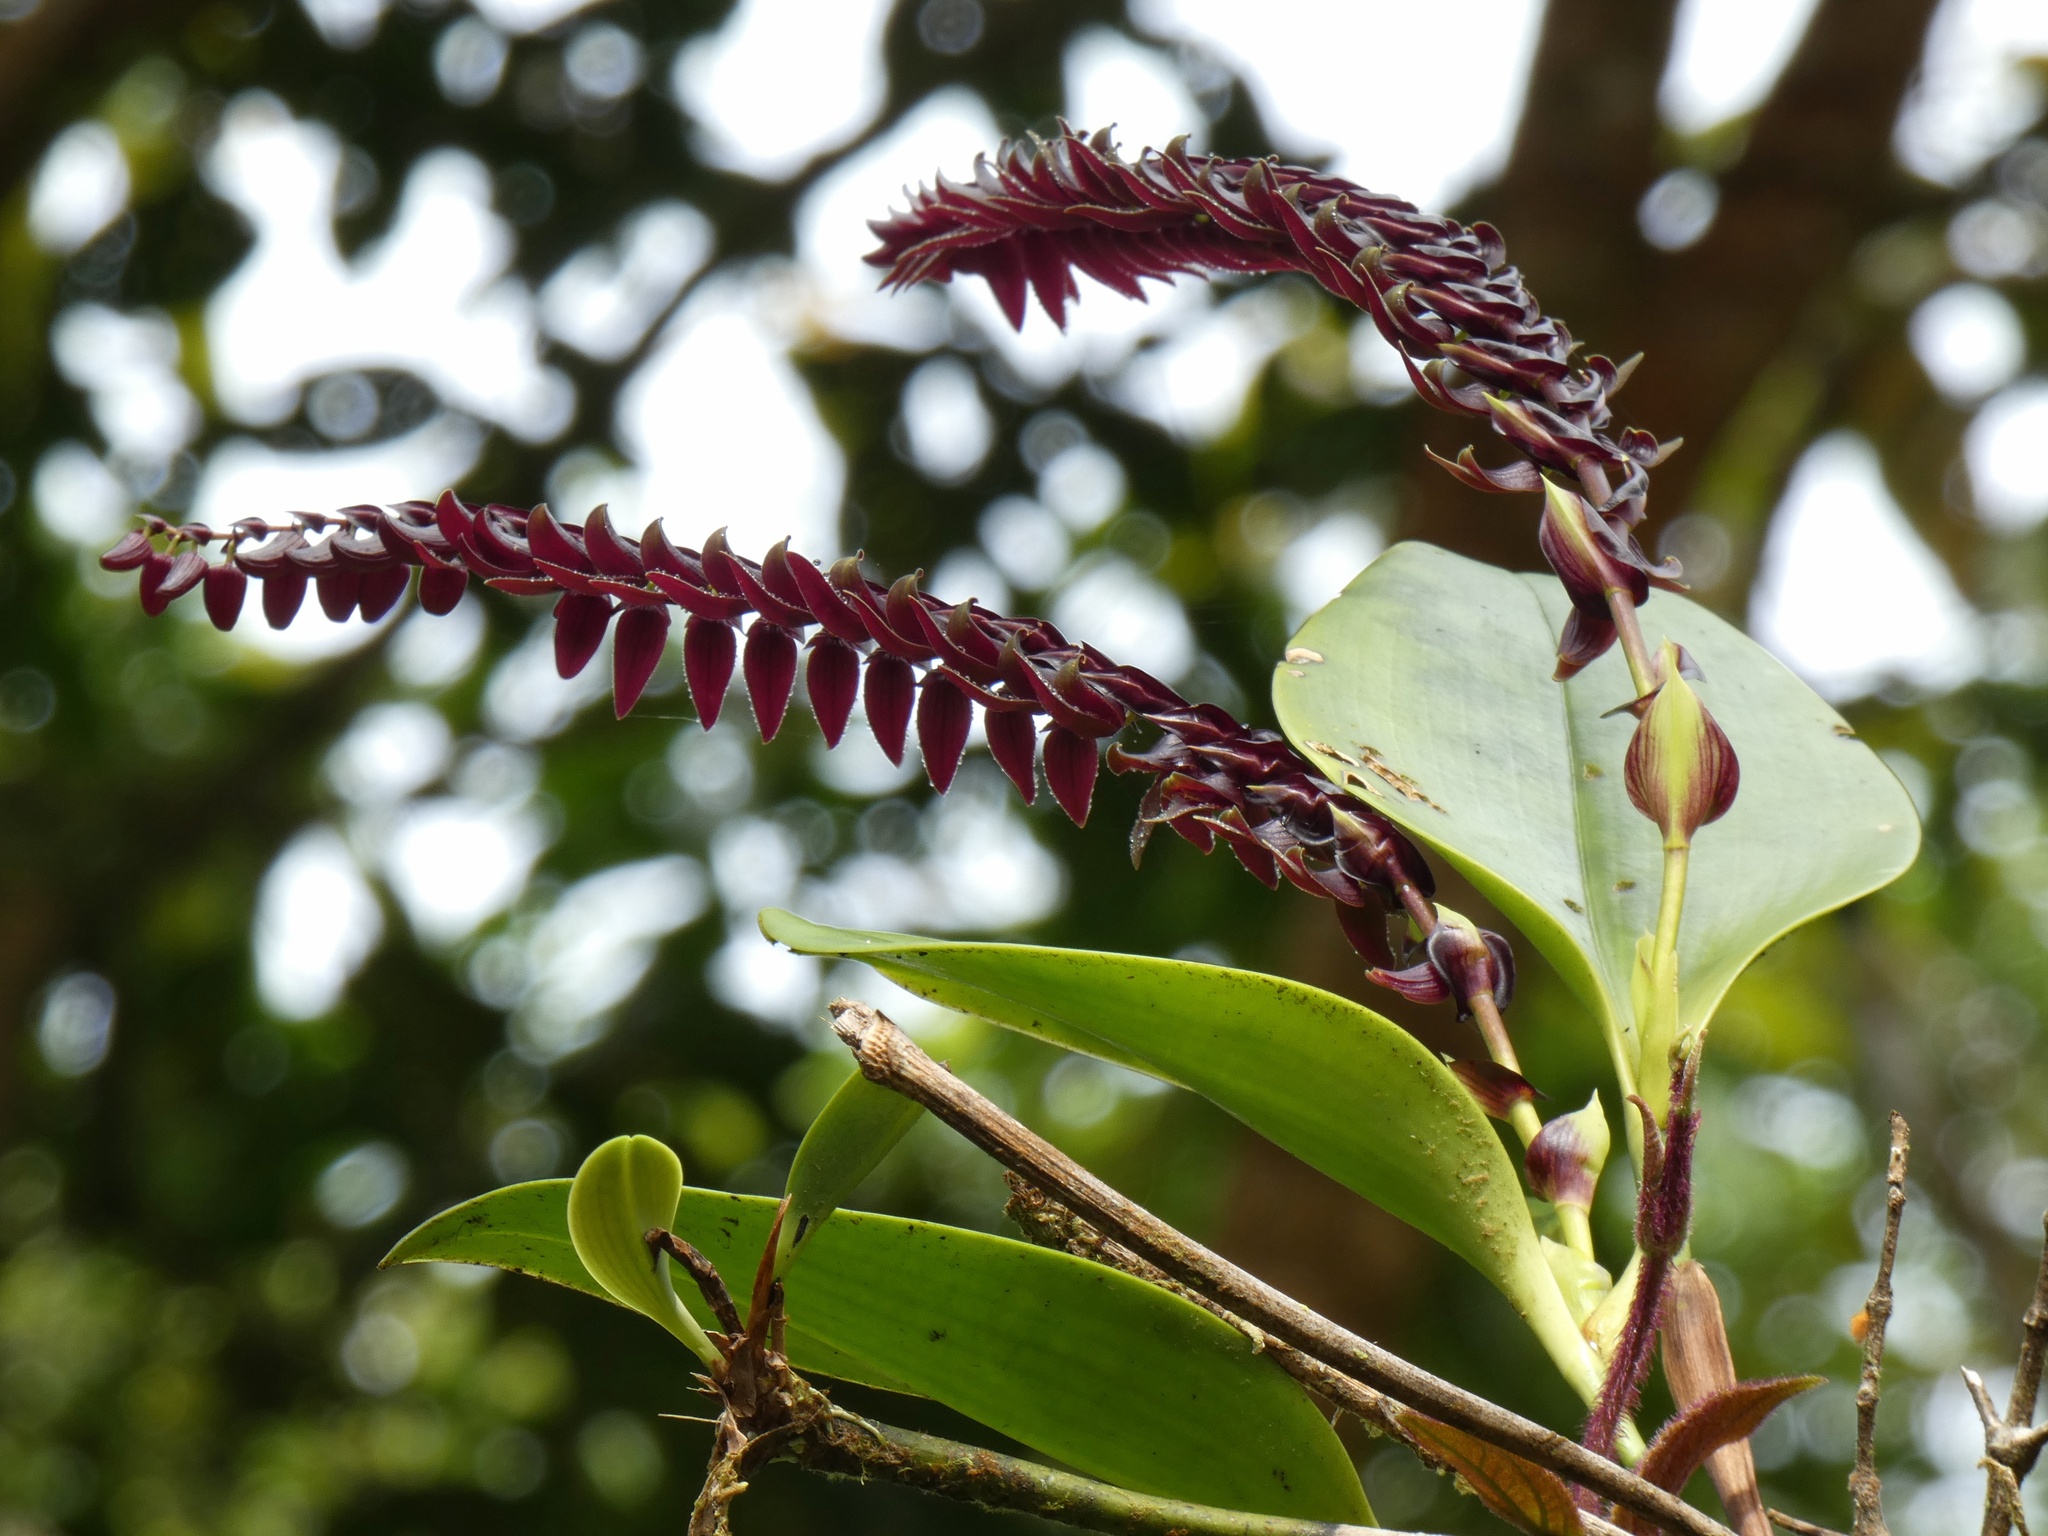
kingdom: Plantae
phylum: Tracheophyta
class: Liliopsida
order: Asparagales
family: Orchidaceae
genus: Stelis
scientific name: Stelis allenii
